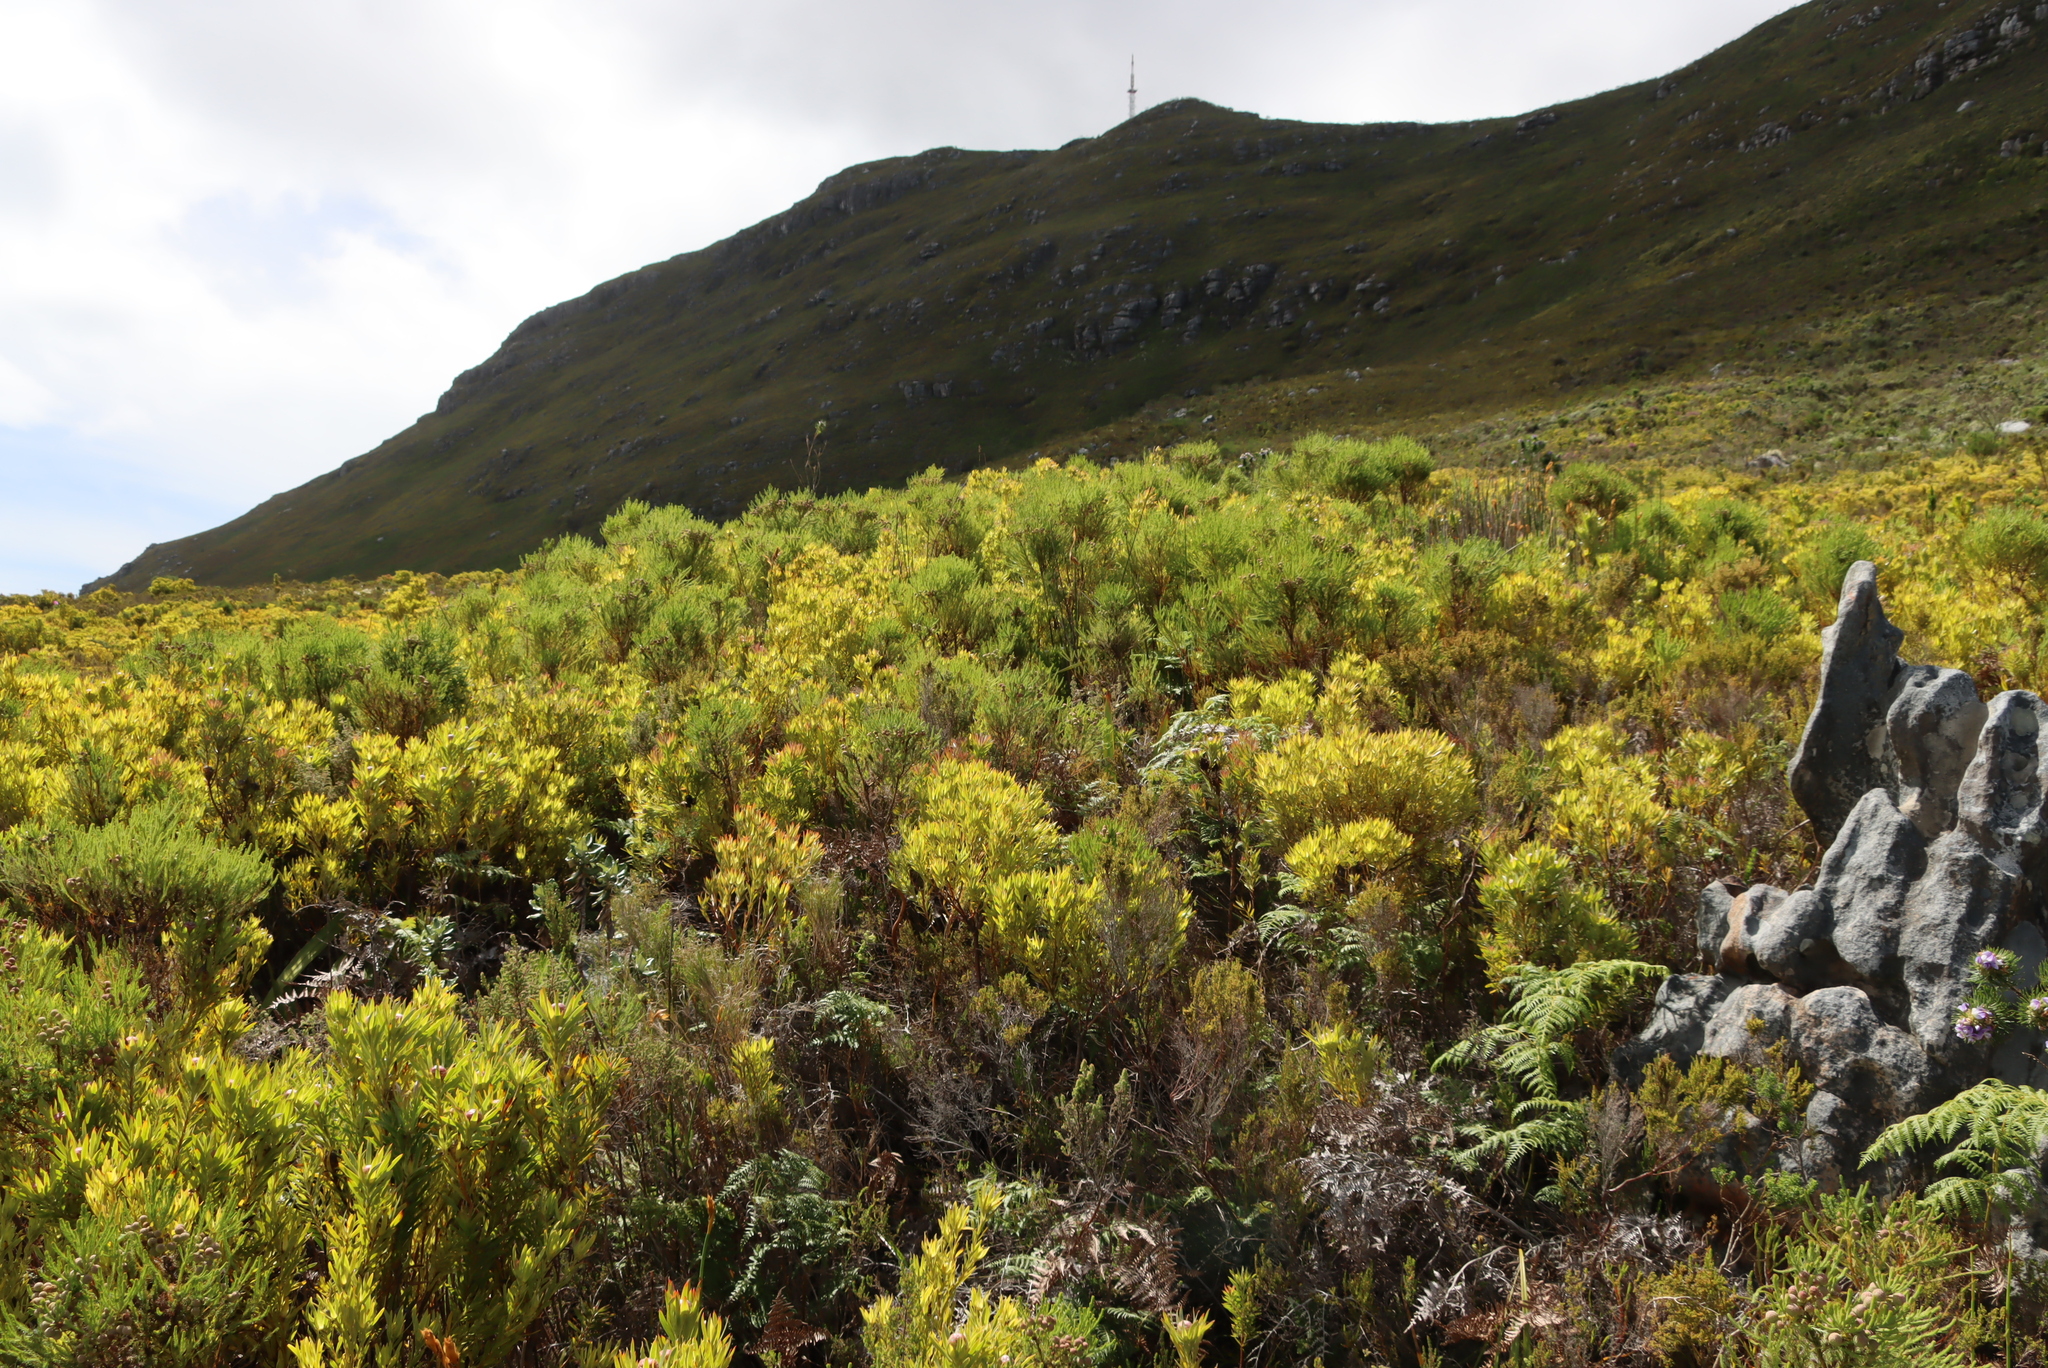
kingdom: Plantae
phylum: Tracheophyta
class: Magnoliopsida
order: Proteales
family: Proteaceae
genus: Leucadendron
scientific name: Leucadendron xanthoconus
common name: Sickle-leaf conebush
